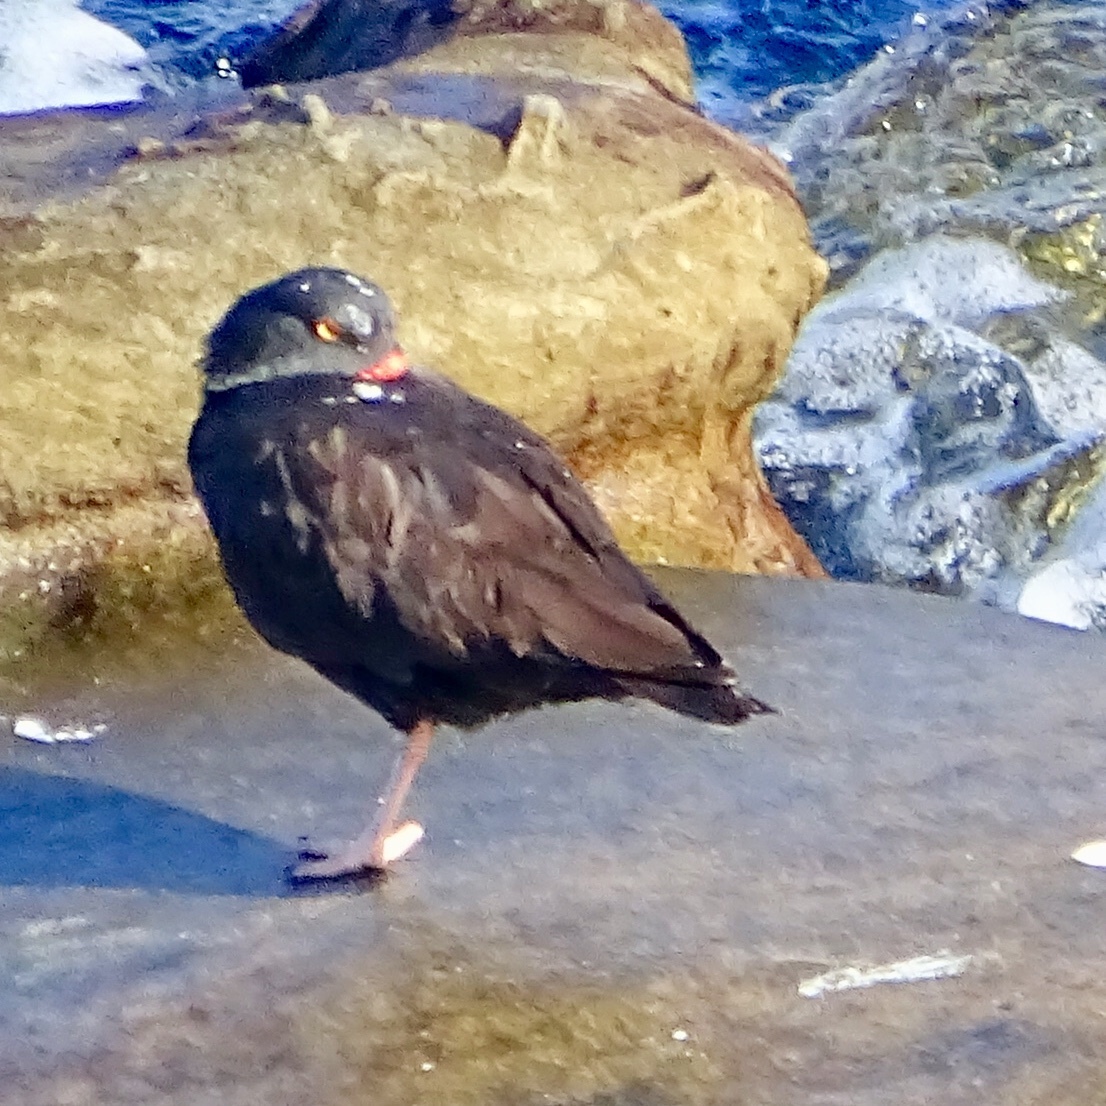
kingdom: Animalia
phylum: Chordata
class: Aves
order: Charadriiformes
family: Haematopodidae
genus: Haematopus
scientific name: Haematopus bachmani
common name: Black oystercatcher
